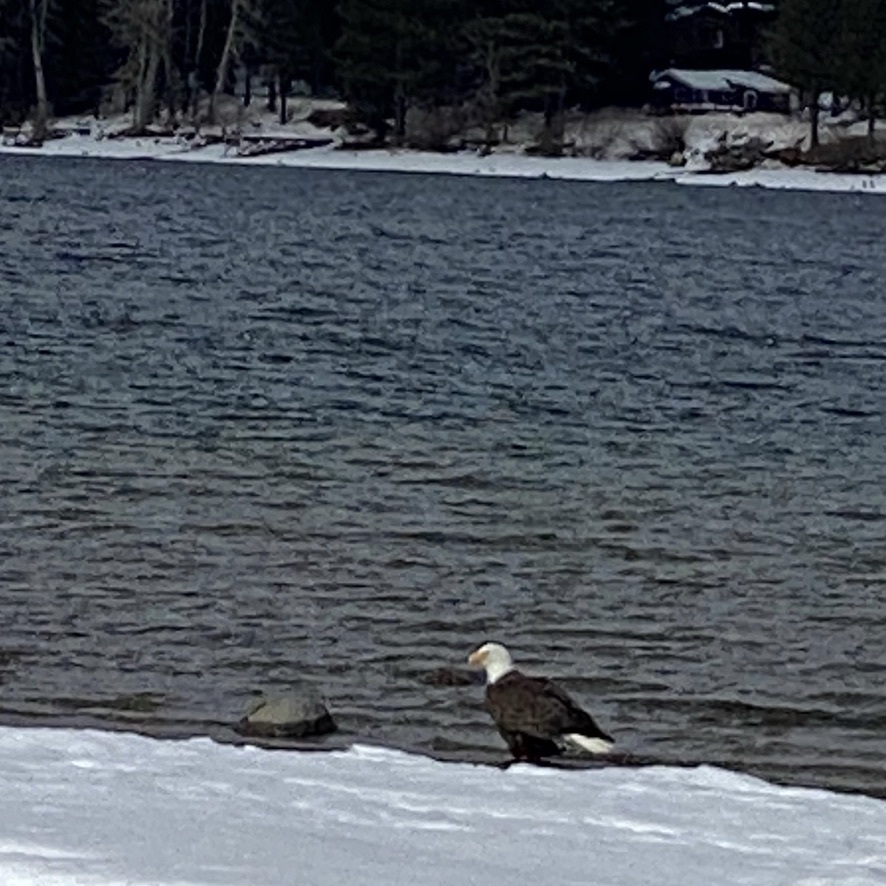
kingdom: Animalia
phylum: Chordata
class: Aves
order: Accipitriformes
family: Accipitridae
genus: Haliaeetus
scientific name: Haliaeetus leucocephalus
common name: Bald eagle
